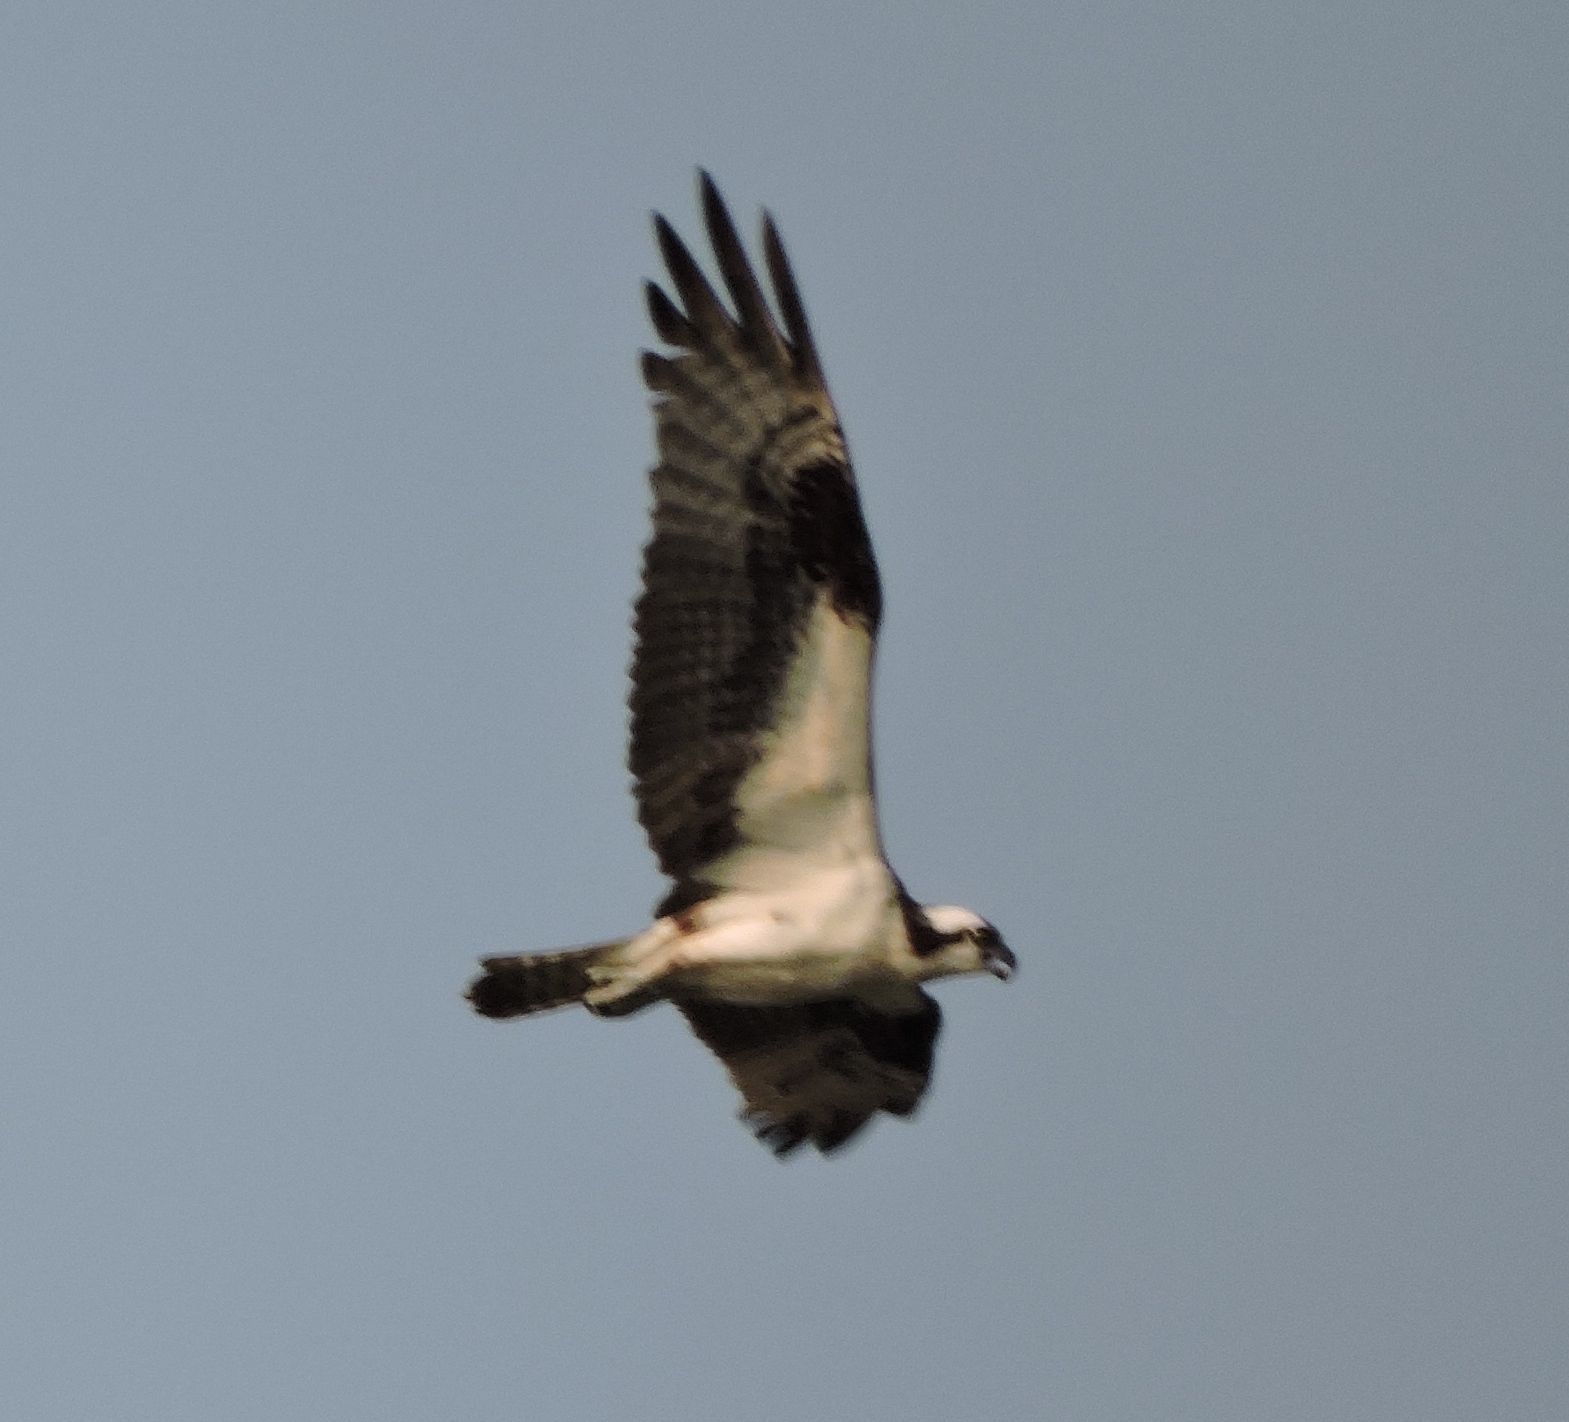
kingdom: Animalia
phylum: Chordata
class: Aves
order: Accipitriformes
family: Pandionidae
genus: Pandion
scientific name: Pandion haliaetus
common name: Osprey
